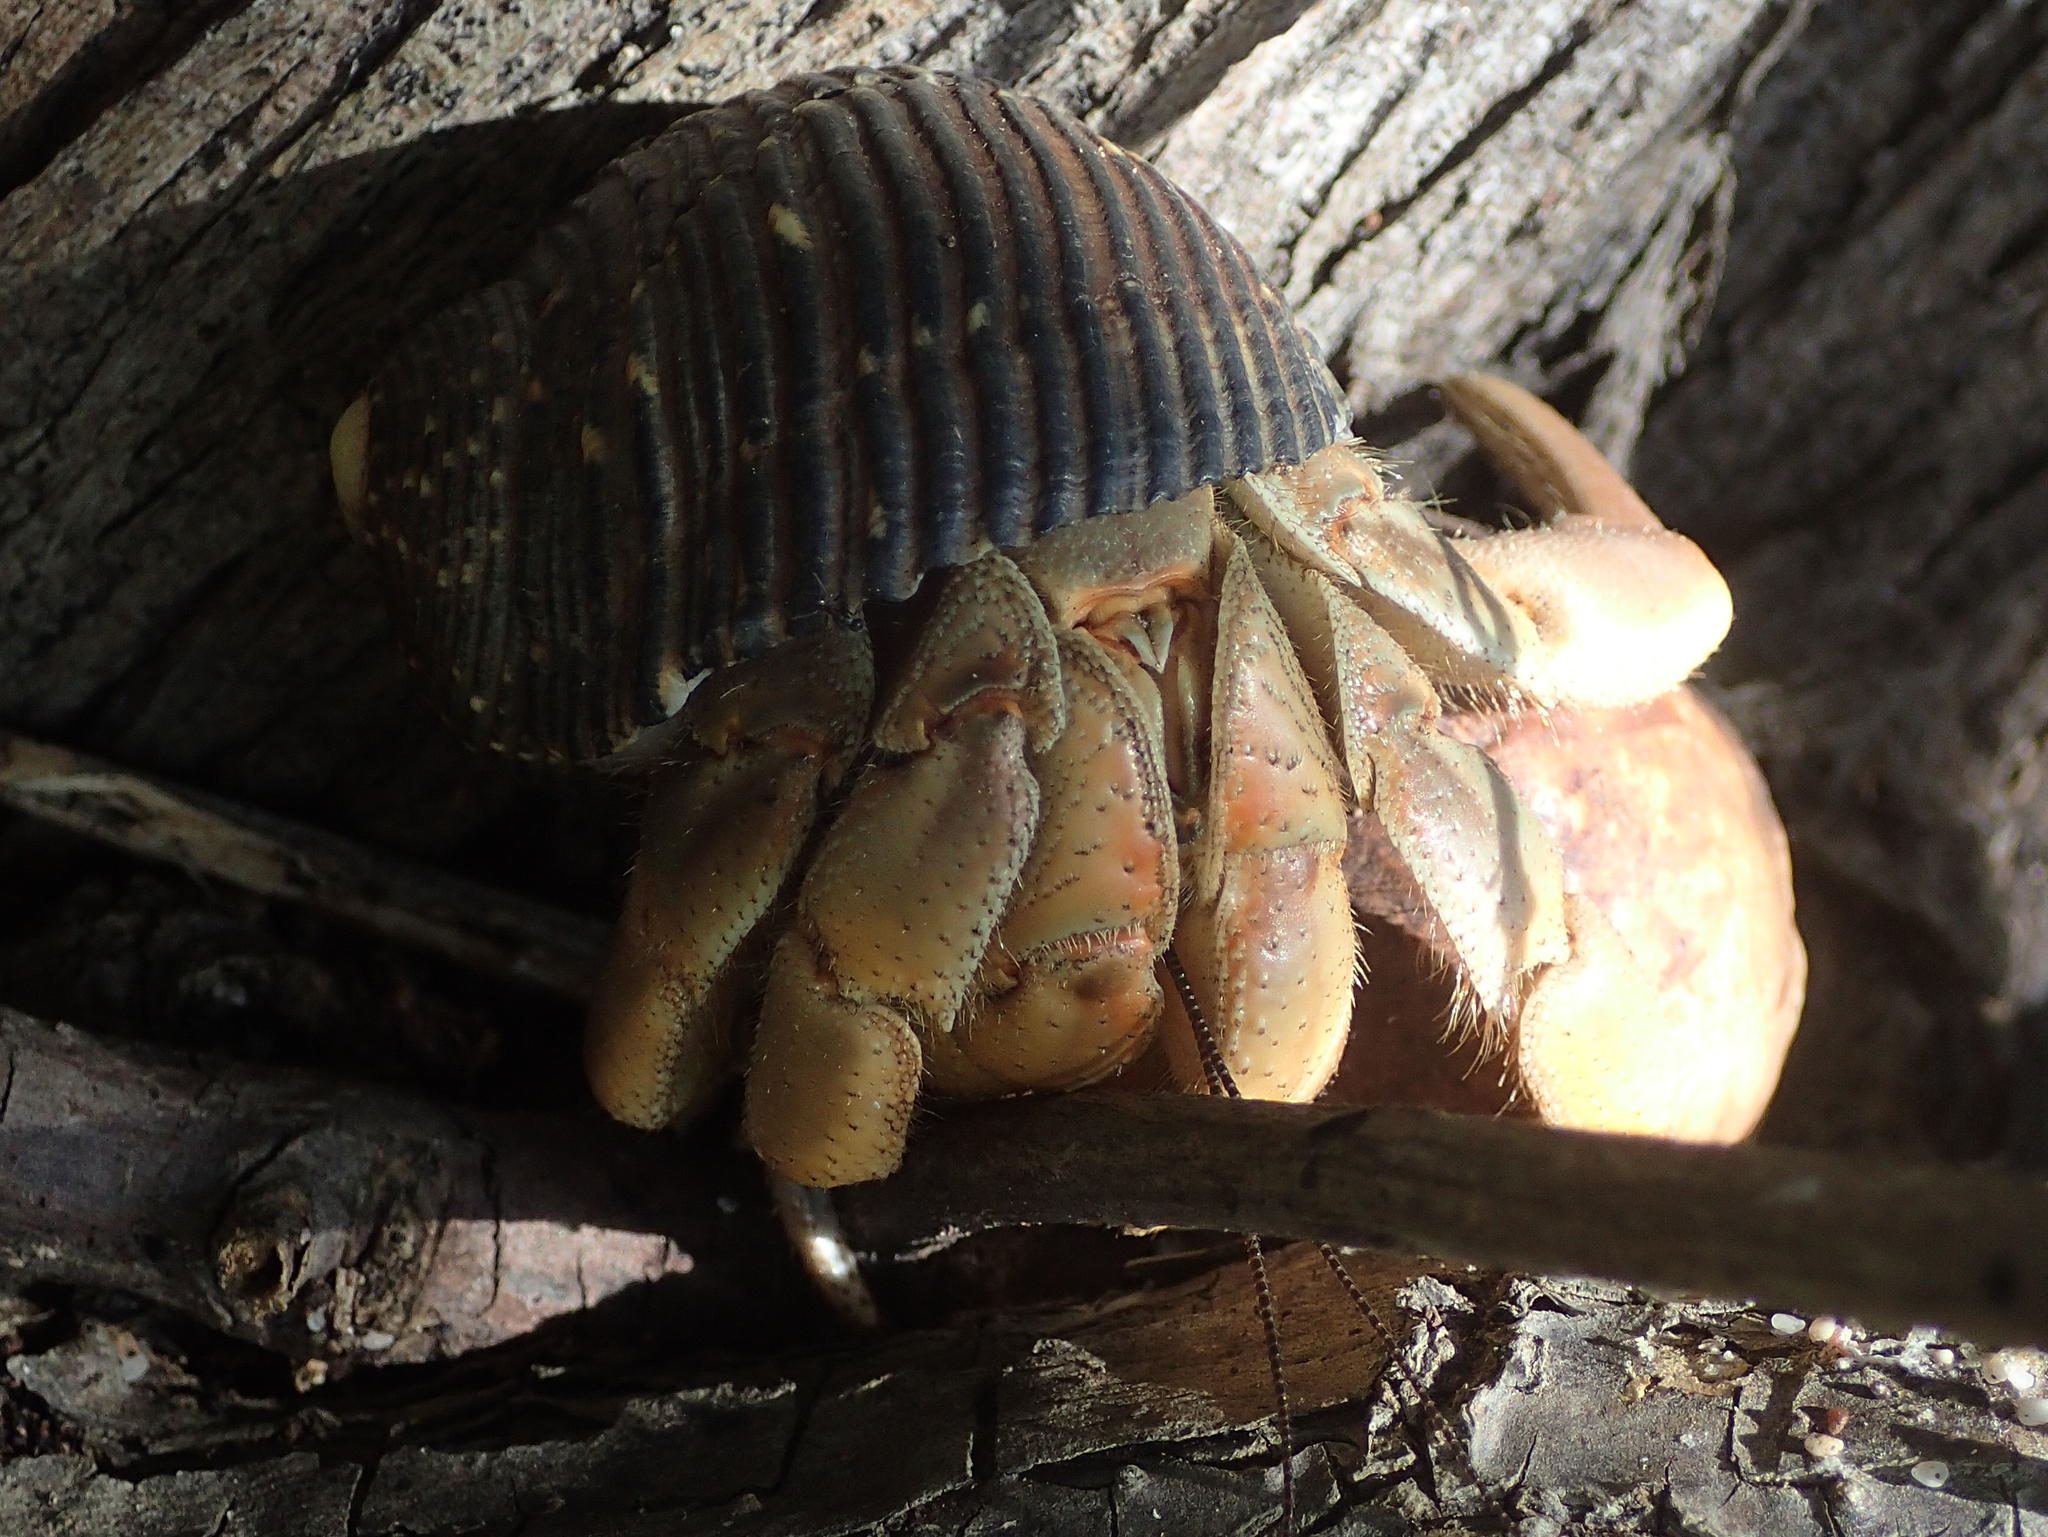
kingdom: Animalia
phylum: Arthropoda
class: Malacostraca
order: Decapoda
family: Coenobitidae
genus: Coenobita
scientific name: Coenobita compressus
